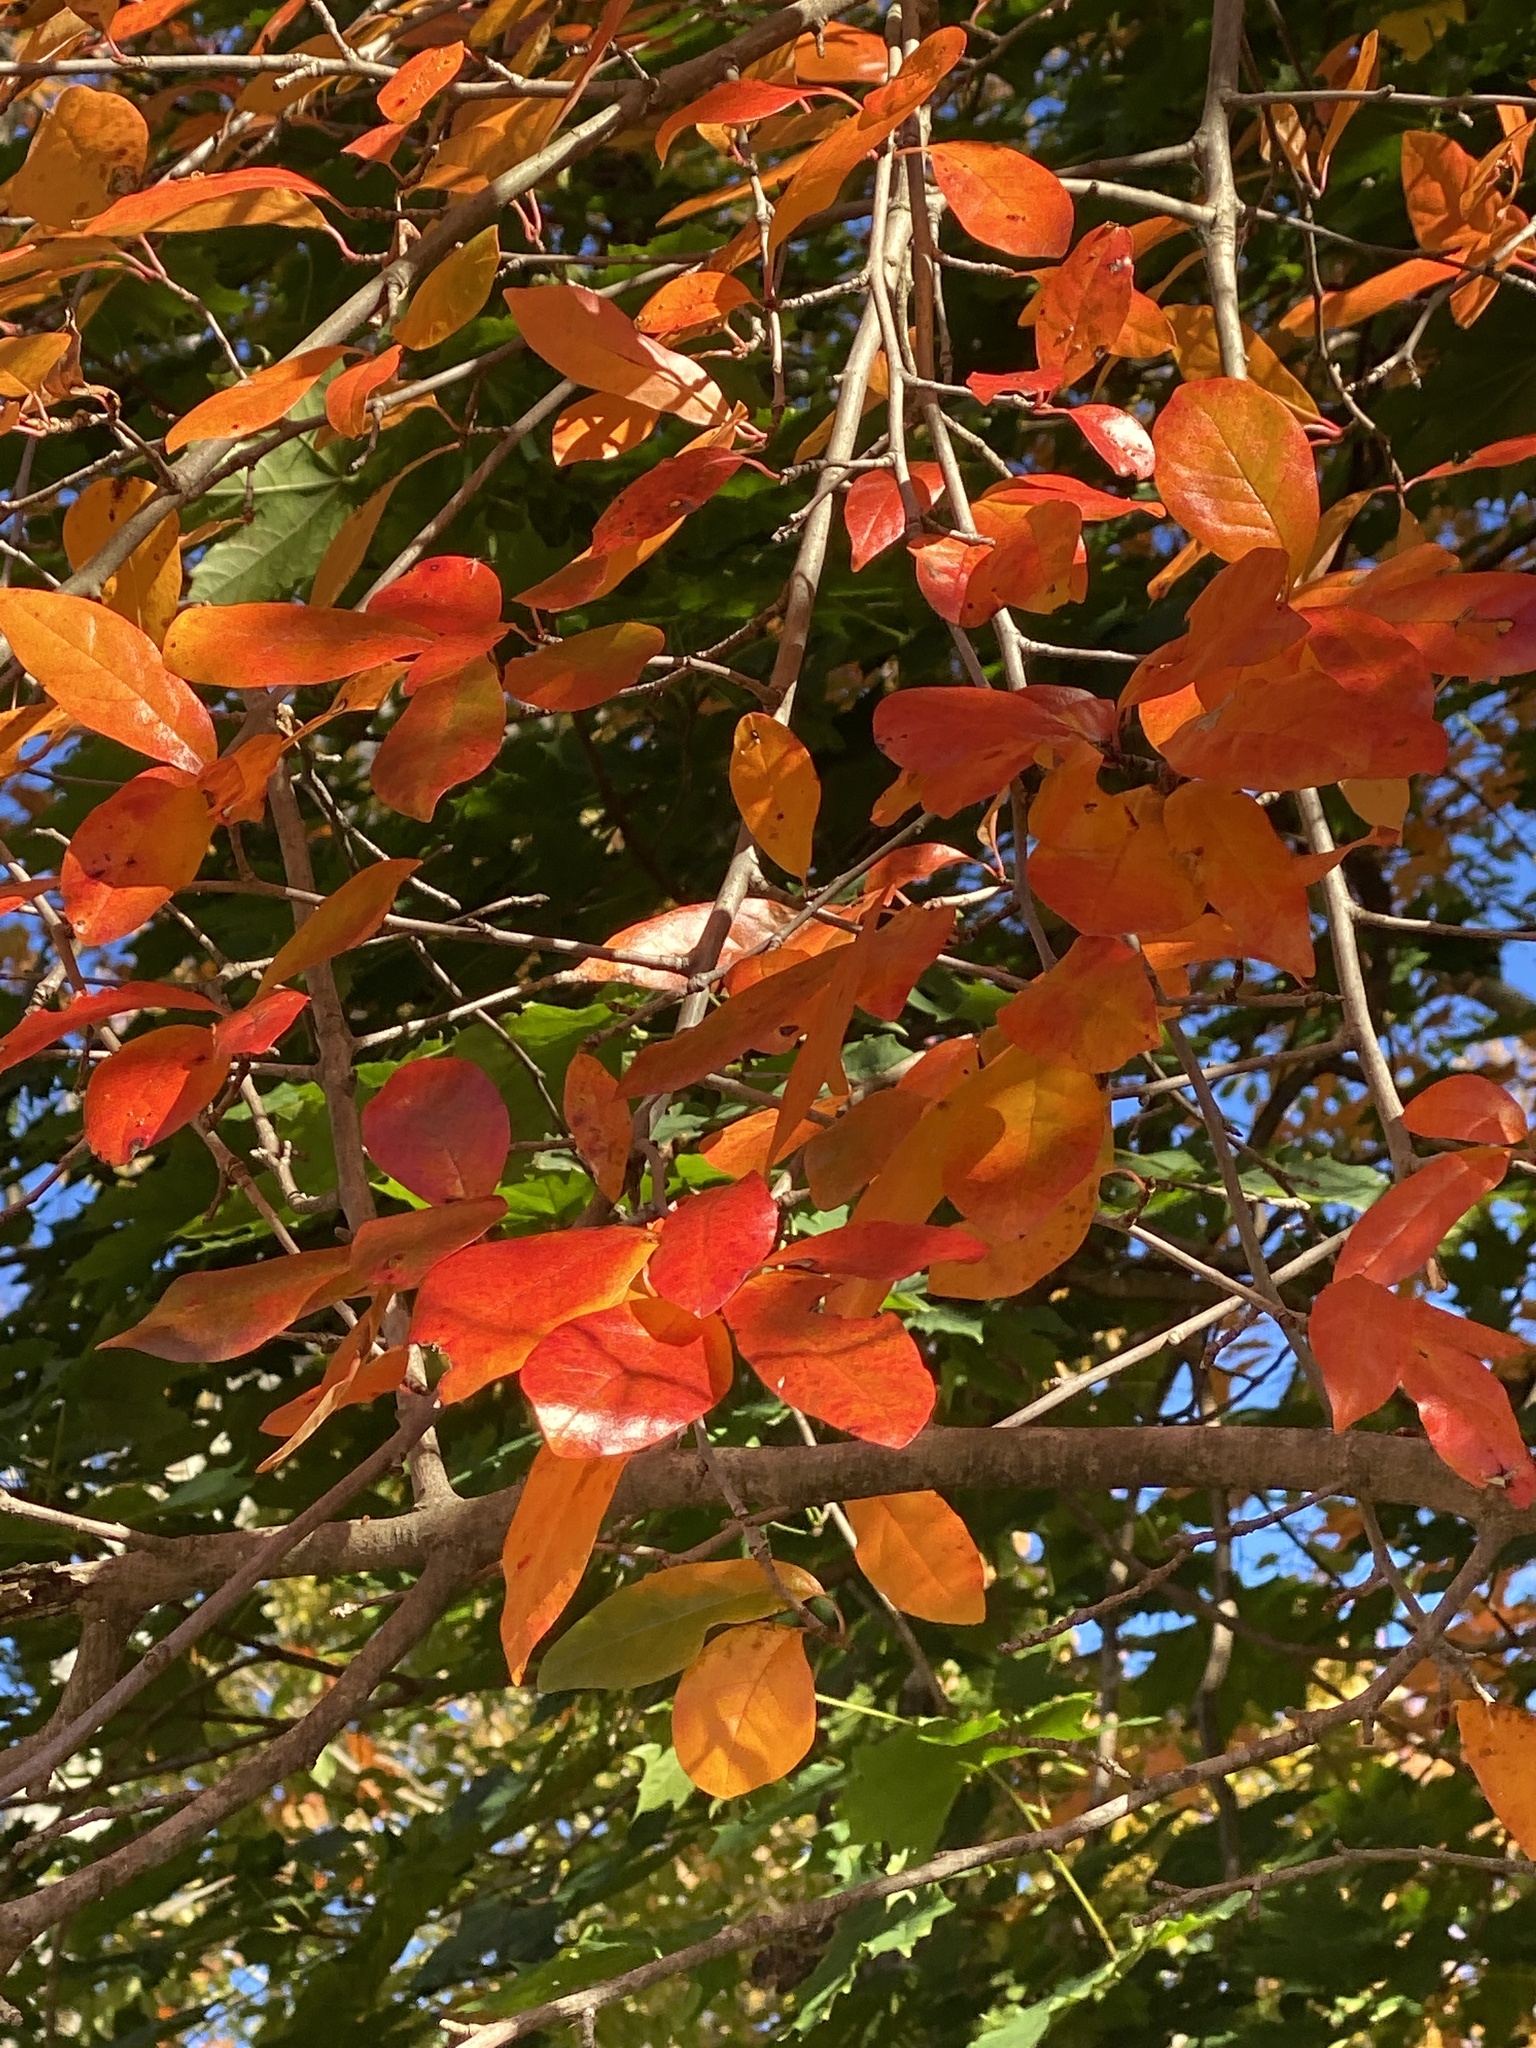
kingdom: Plantae
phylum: Tracheophyta
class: Magnoliopsida
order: Cornales
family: Nyssaceae
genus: Nyssa
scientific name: Nyssa sylvatica
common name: Black tupelo
